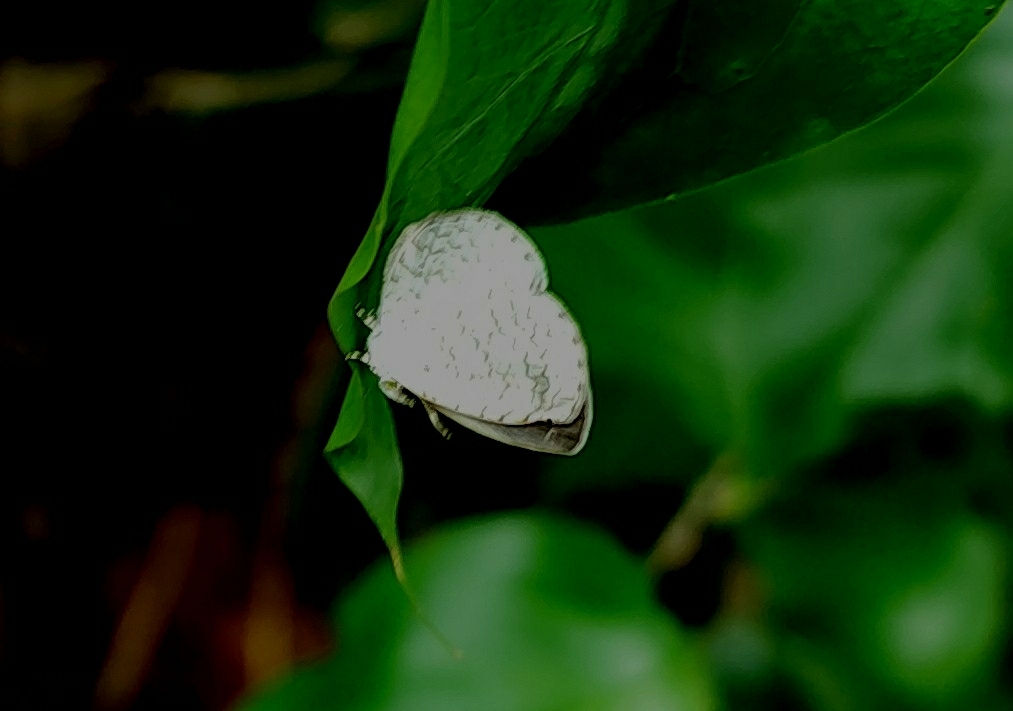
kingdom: Animalia
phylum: Arthropoda
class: Insecta
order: Lepidoptera
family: Lycaenidae
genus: Spalgis
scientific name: Spalgis epius
